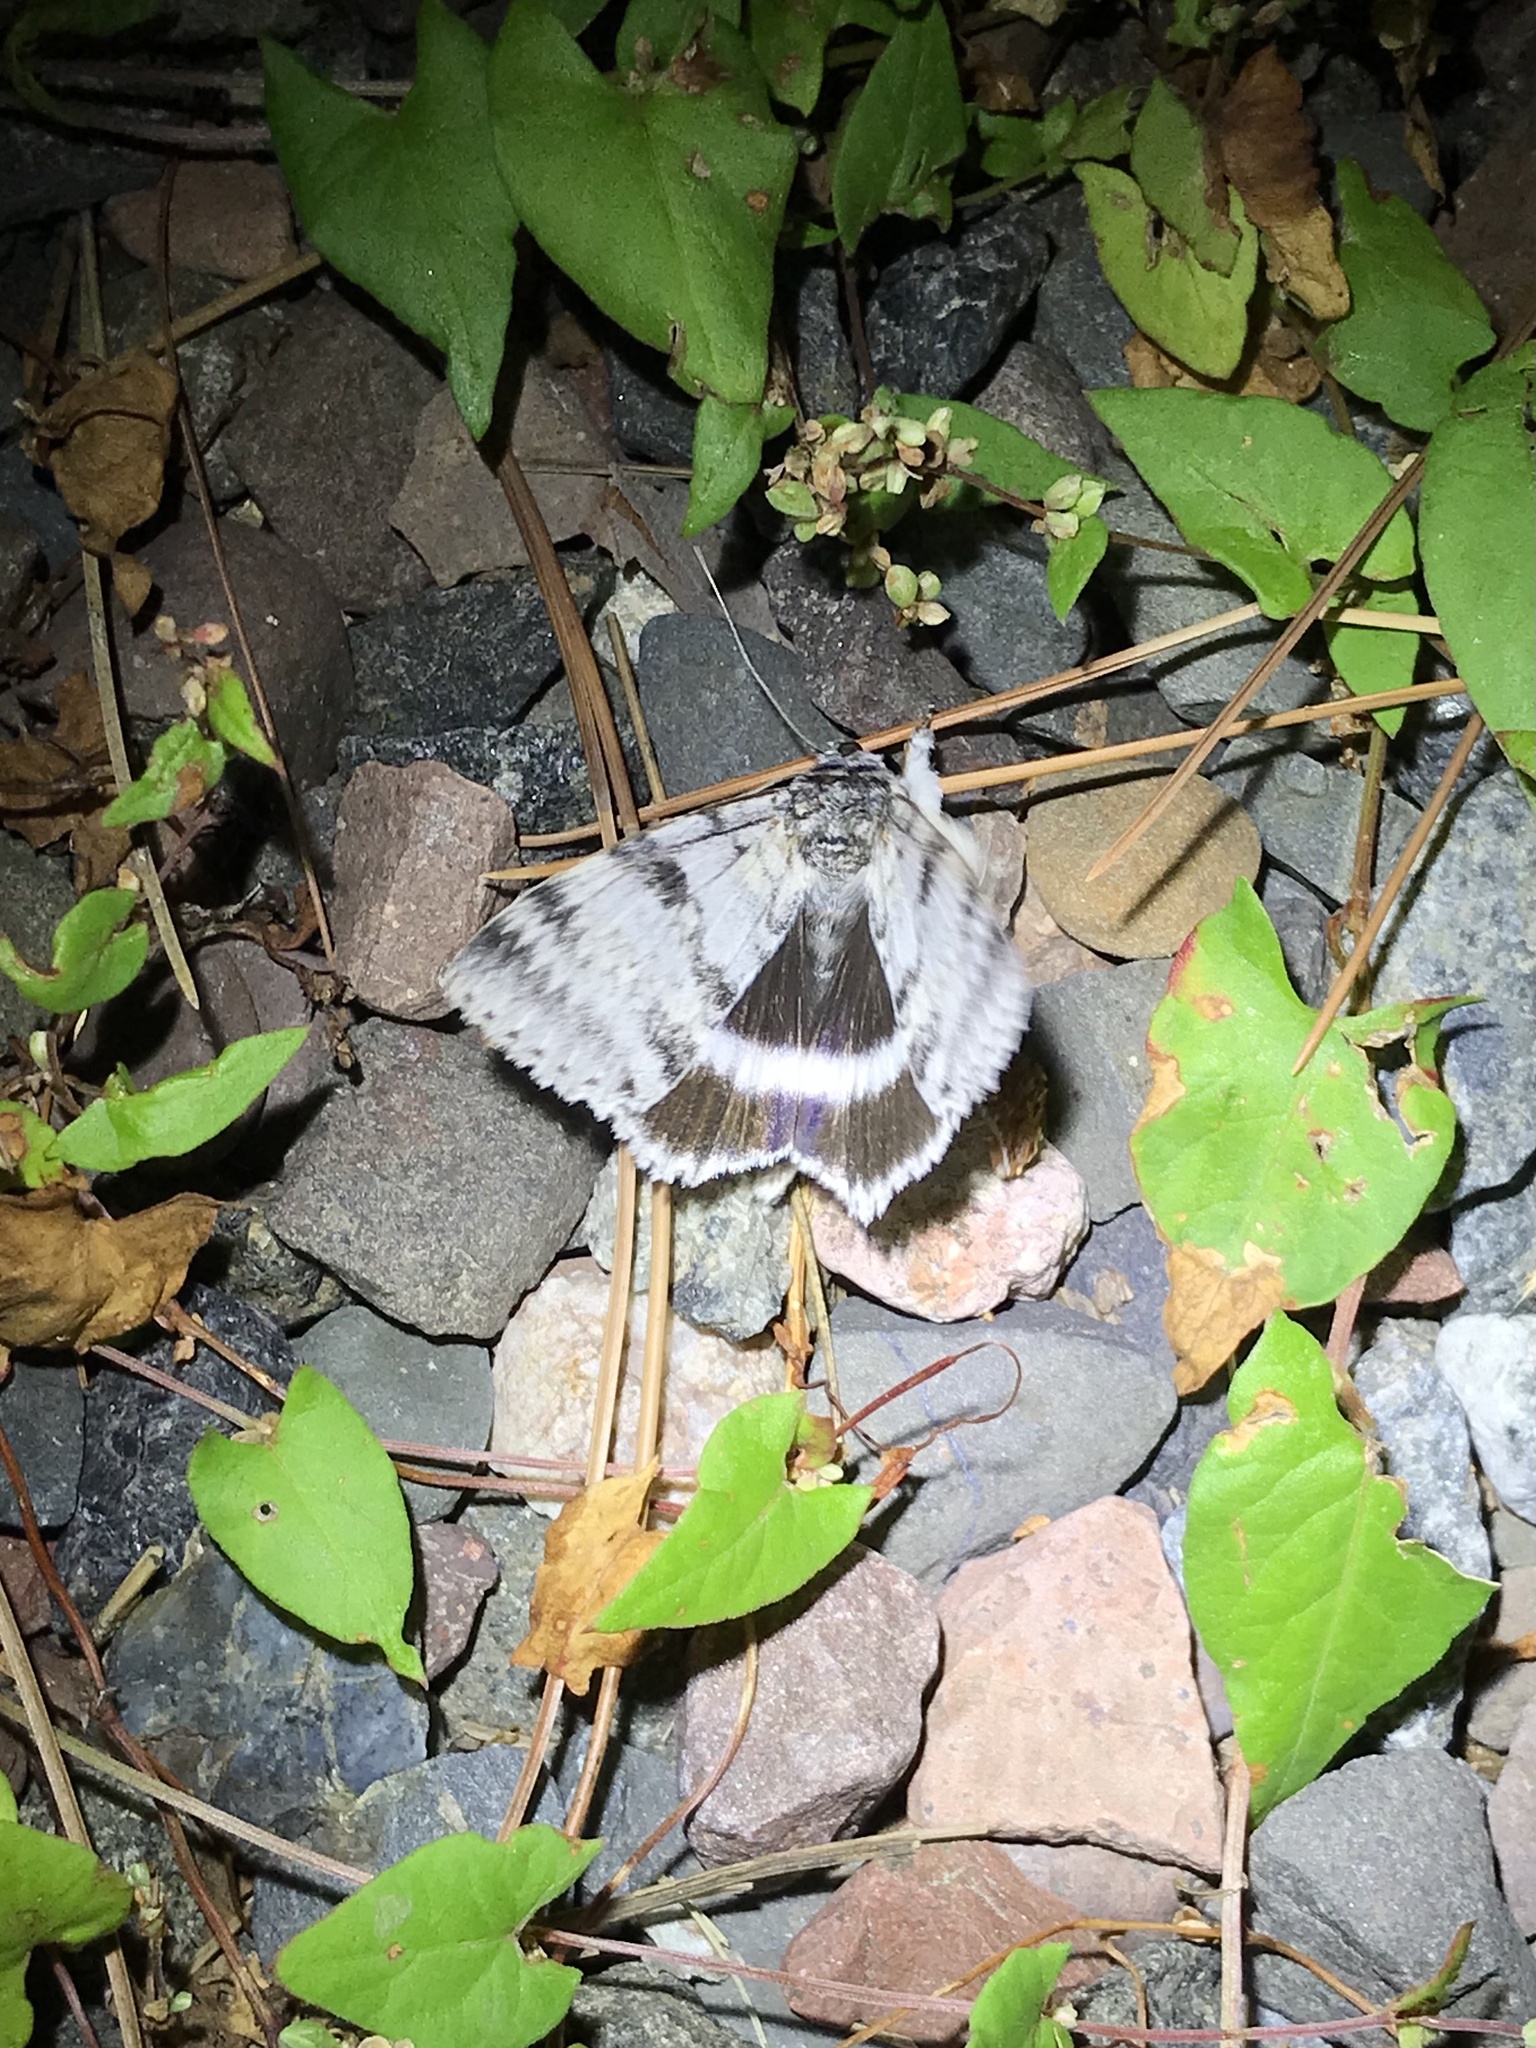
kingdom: Animalia
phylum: Arthropoda
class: Insecta
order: Lepidoptera
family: Erebidae
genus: Catocala
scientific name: Catocala relicta
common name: White underwing
